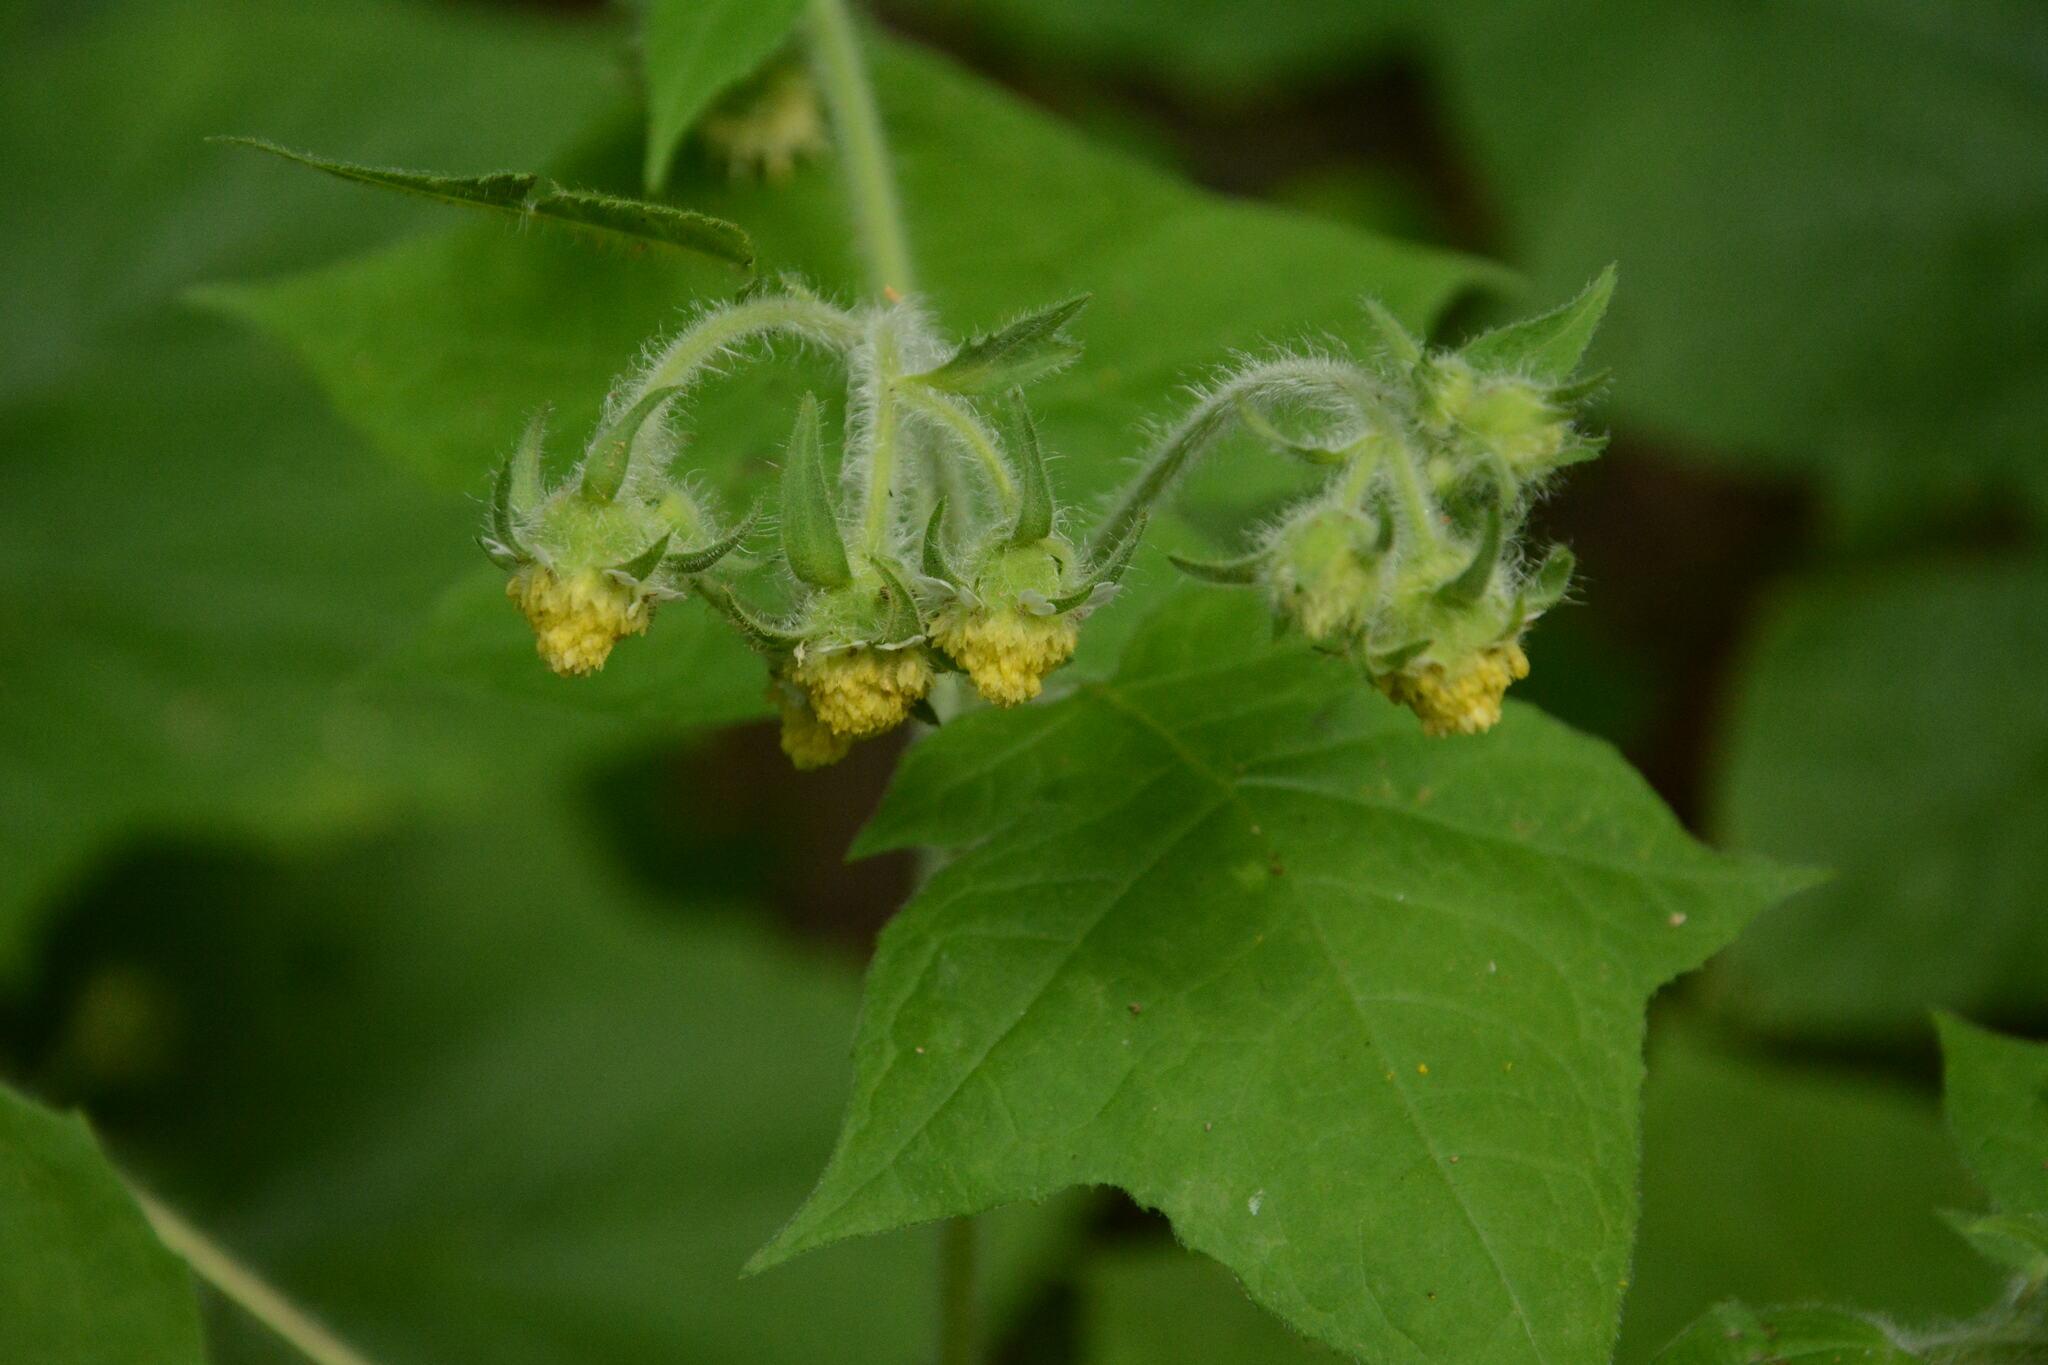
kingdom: Plantae
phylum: Tracheophyta
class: Magnoliopsida
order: Asterales
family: Asteraceae
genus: Polymnia
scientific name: Polymnia canadensis
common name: Pale-flowered leafcup
